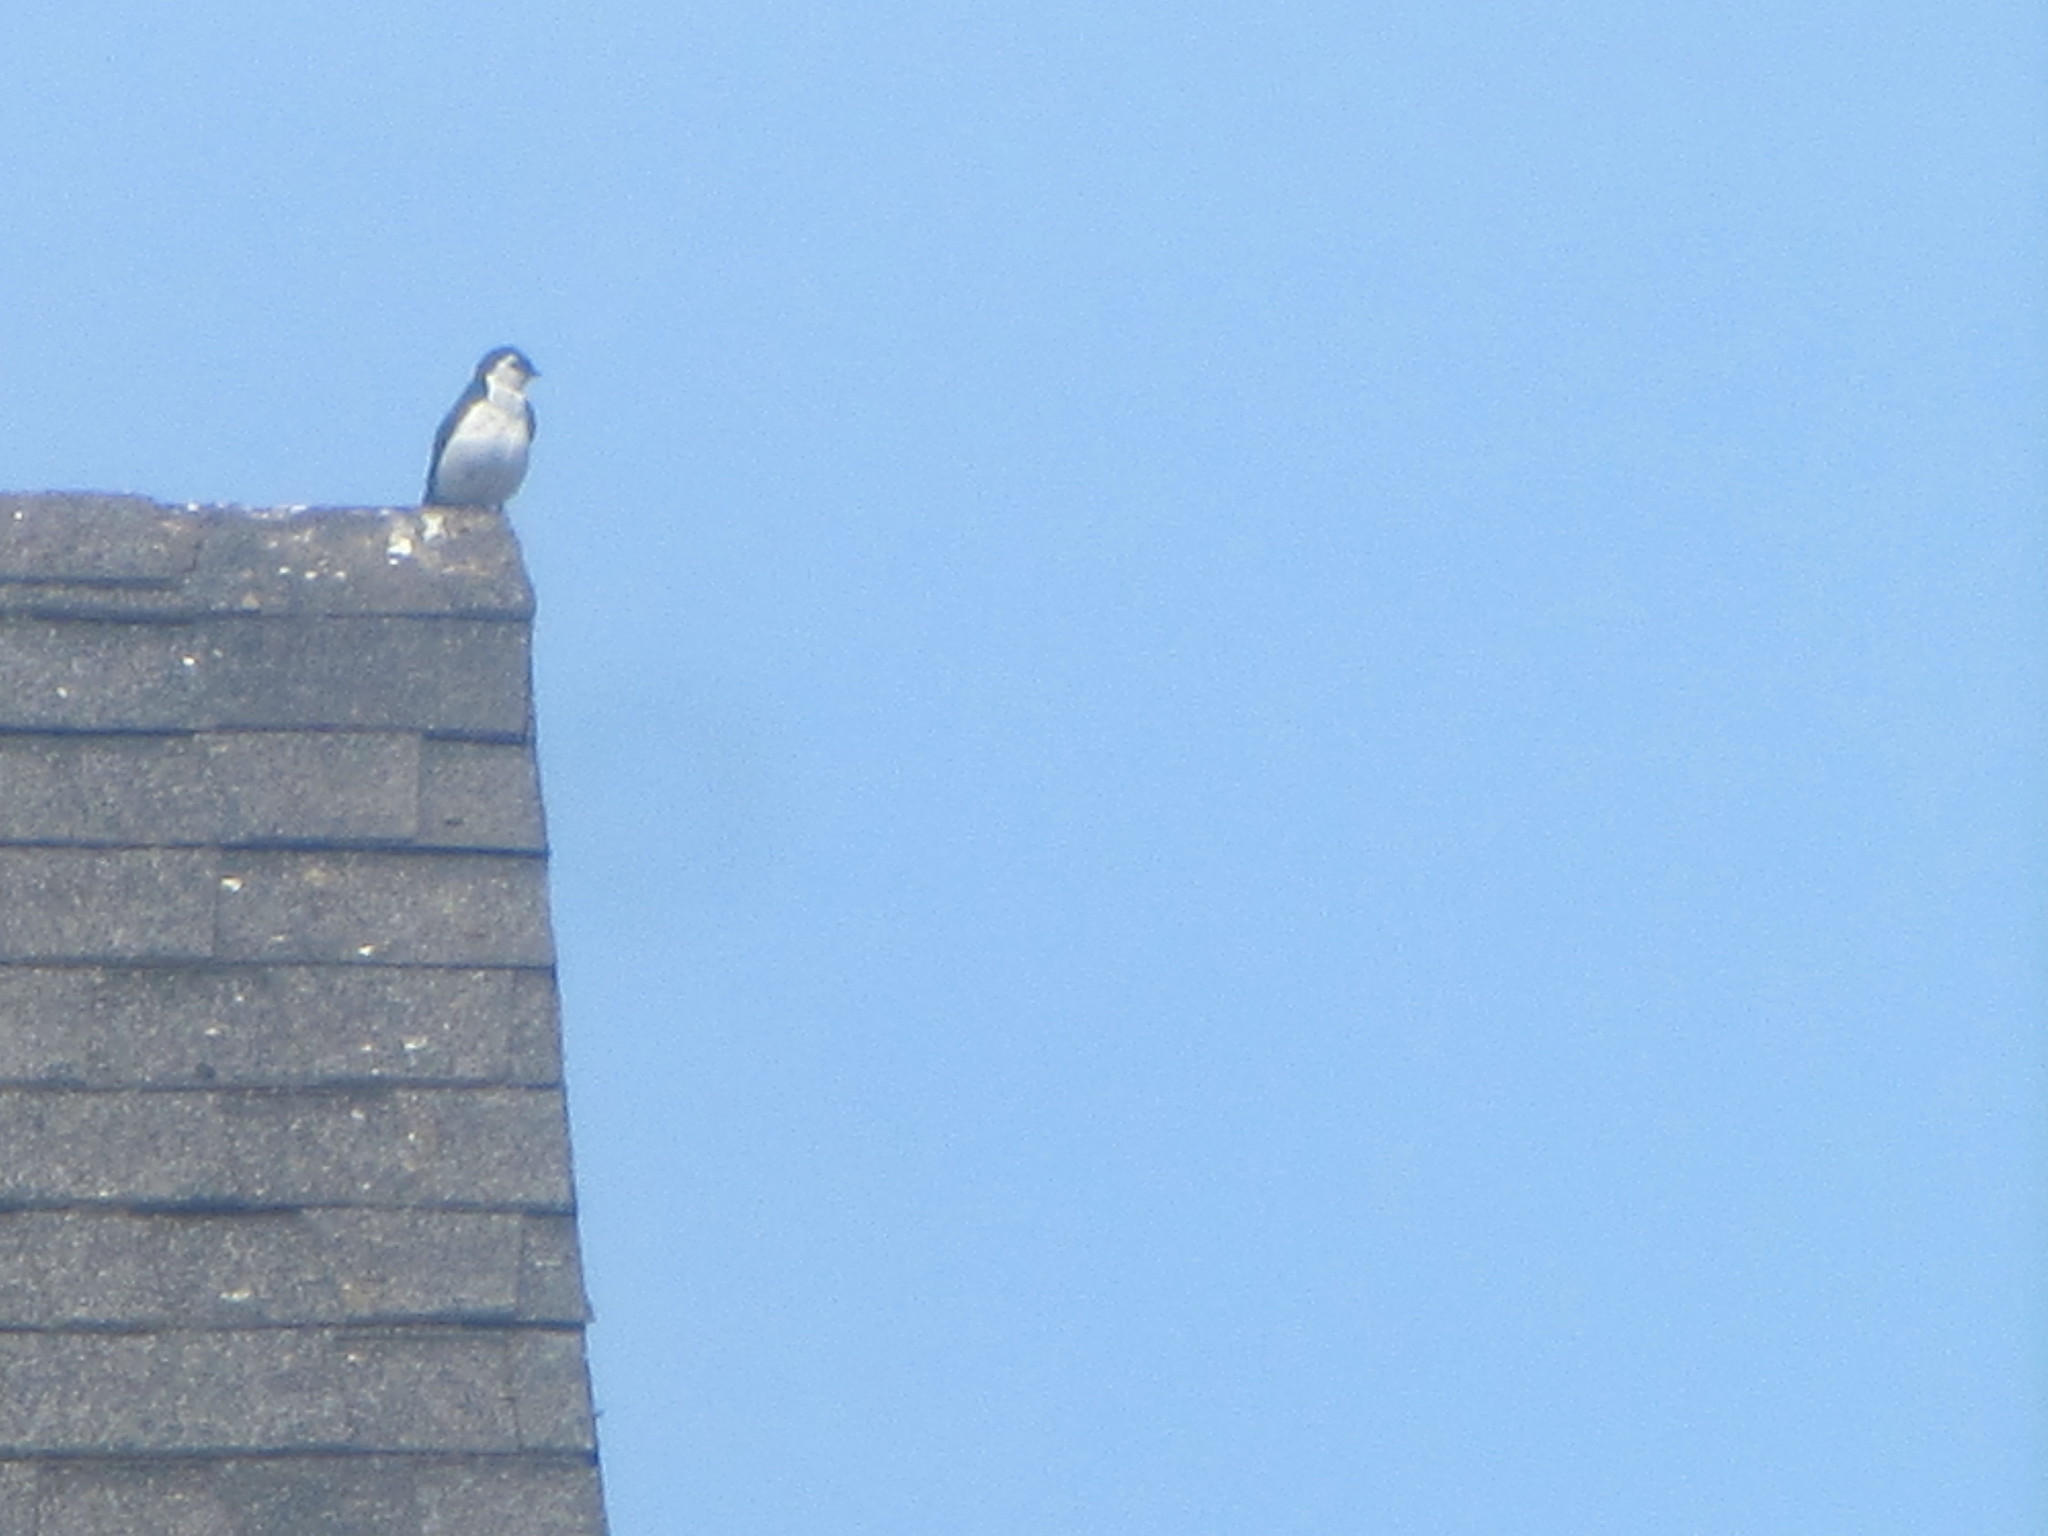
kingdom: Animalia
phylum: Chordata
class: Aves
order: Passeriformes
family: Hirundinidae
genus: Tachycineta
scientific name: Tachycineta thalassina
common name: Violet-green swallow
